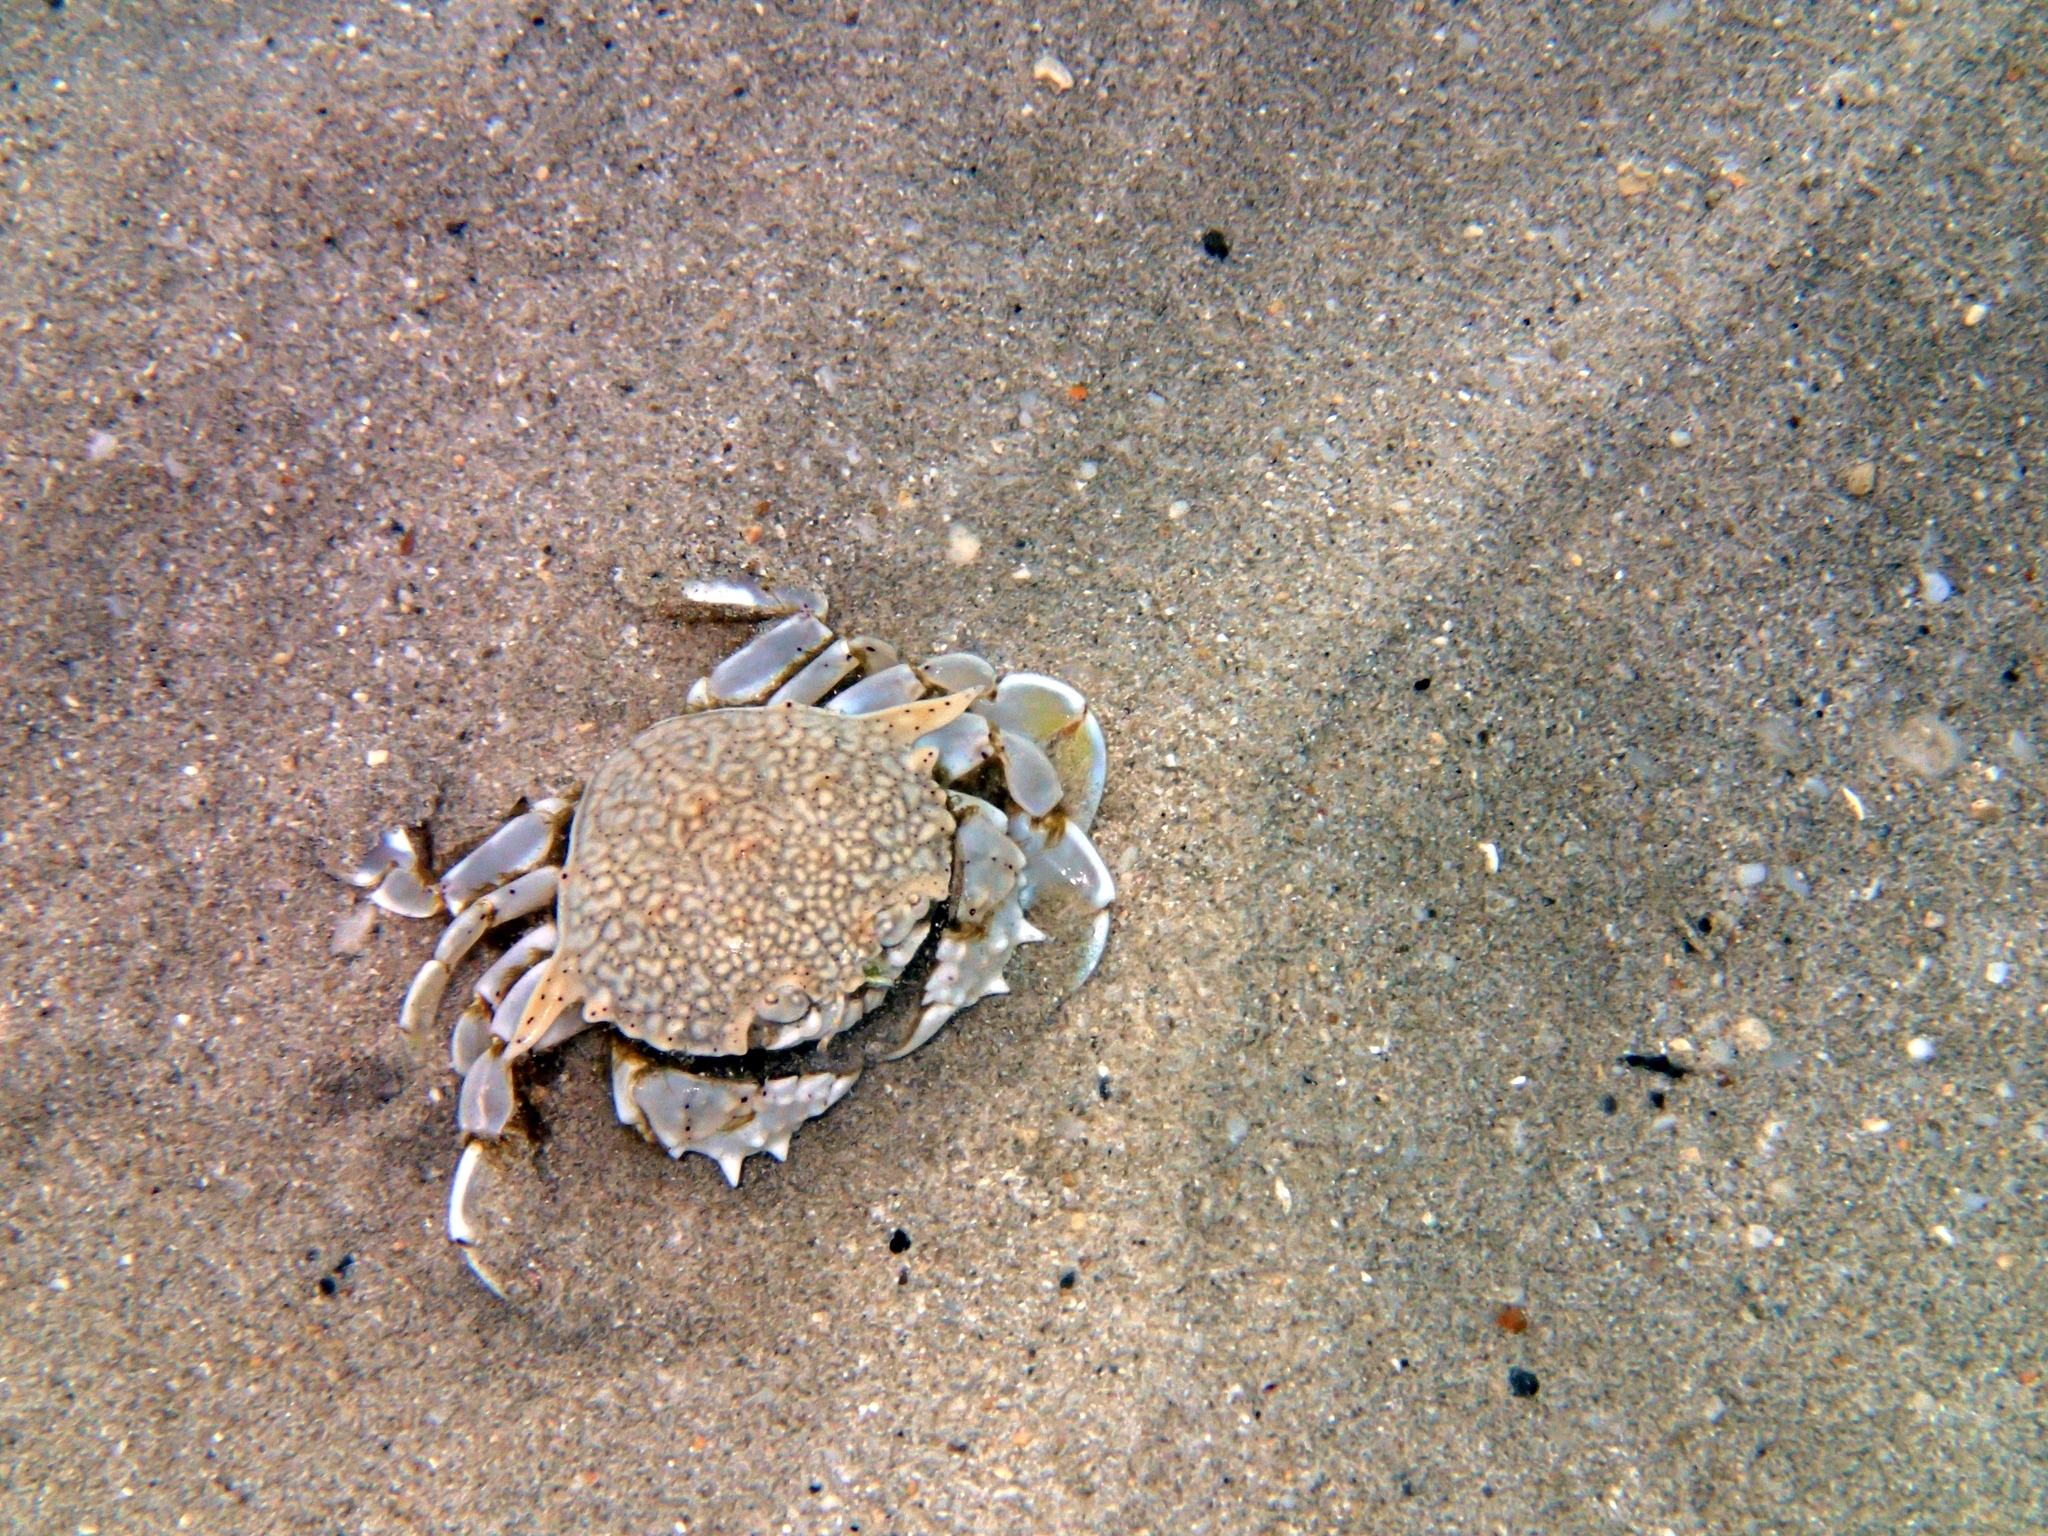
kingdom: Animalia
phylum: Arthropoda
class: Malacostraca
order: Decapoda
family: Matutidae
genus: Matuta
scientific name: Matuta victor
